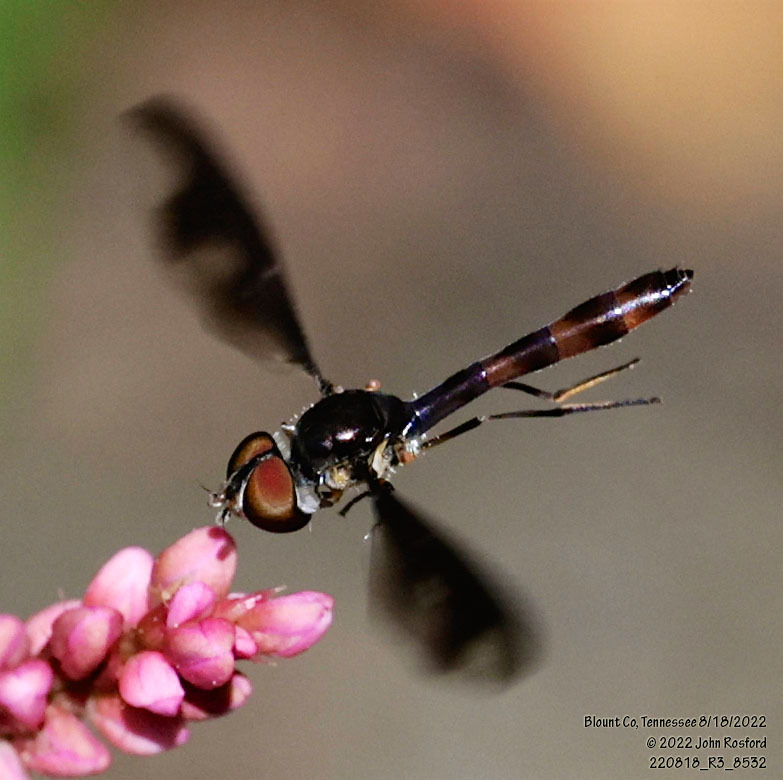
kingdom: Animalia
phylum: Arthropoda
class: Insecta
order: Diptera
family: Syrphidae
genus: Ocyptamus
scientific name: Ocyptamus fuscipennis
